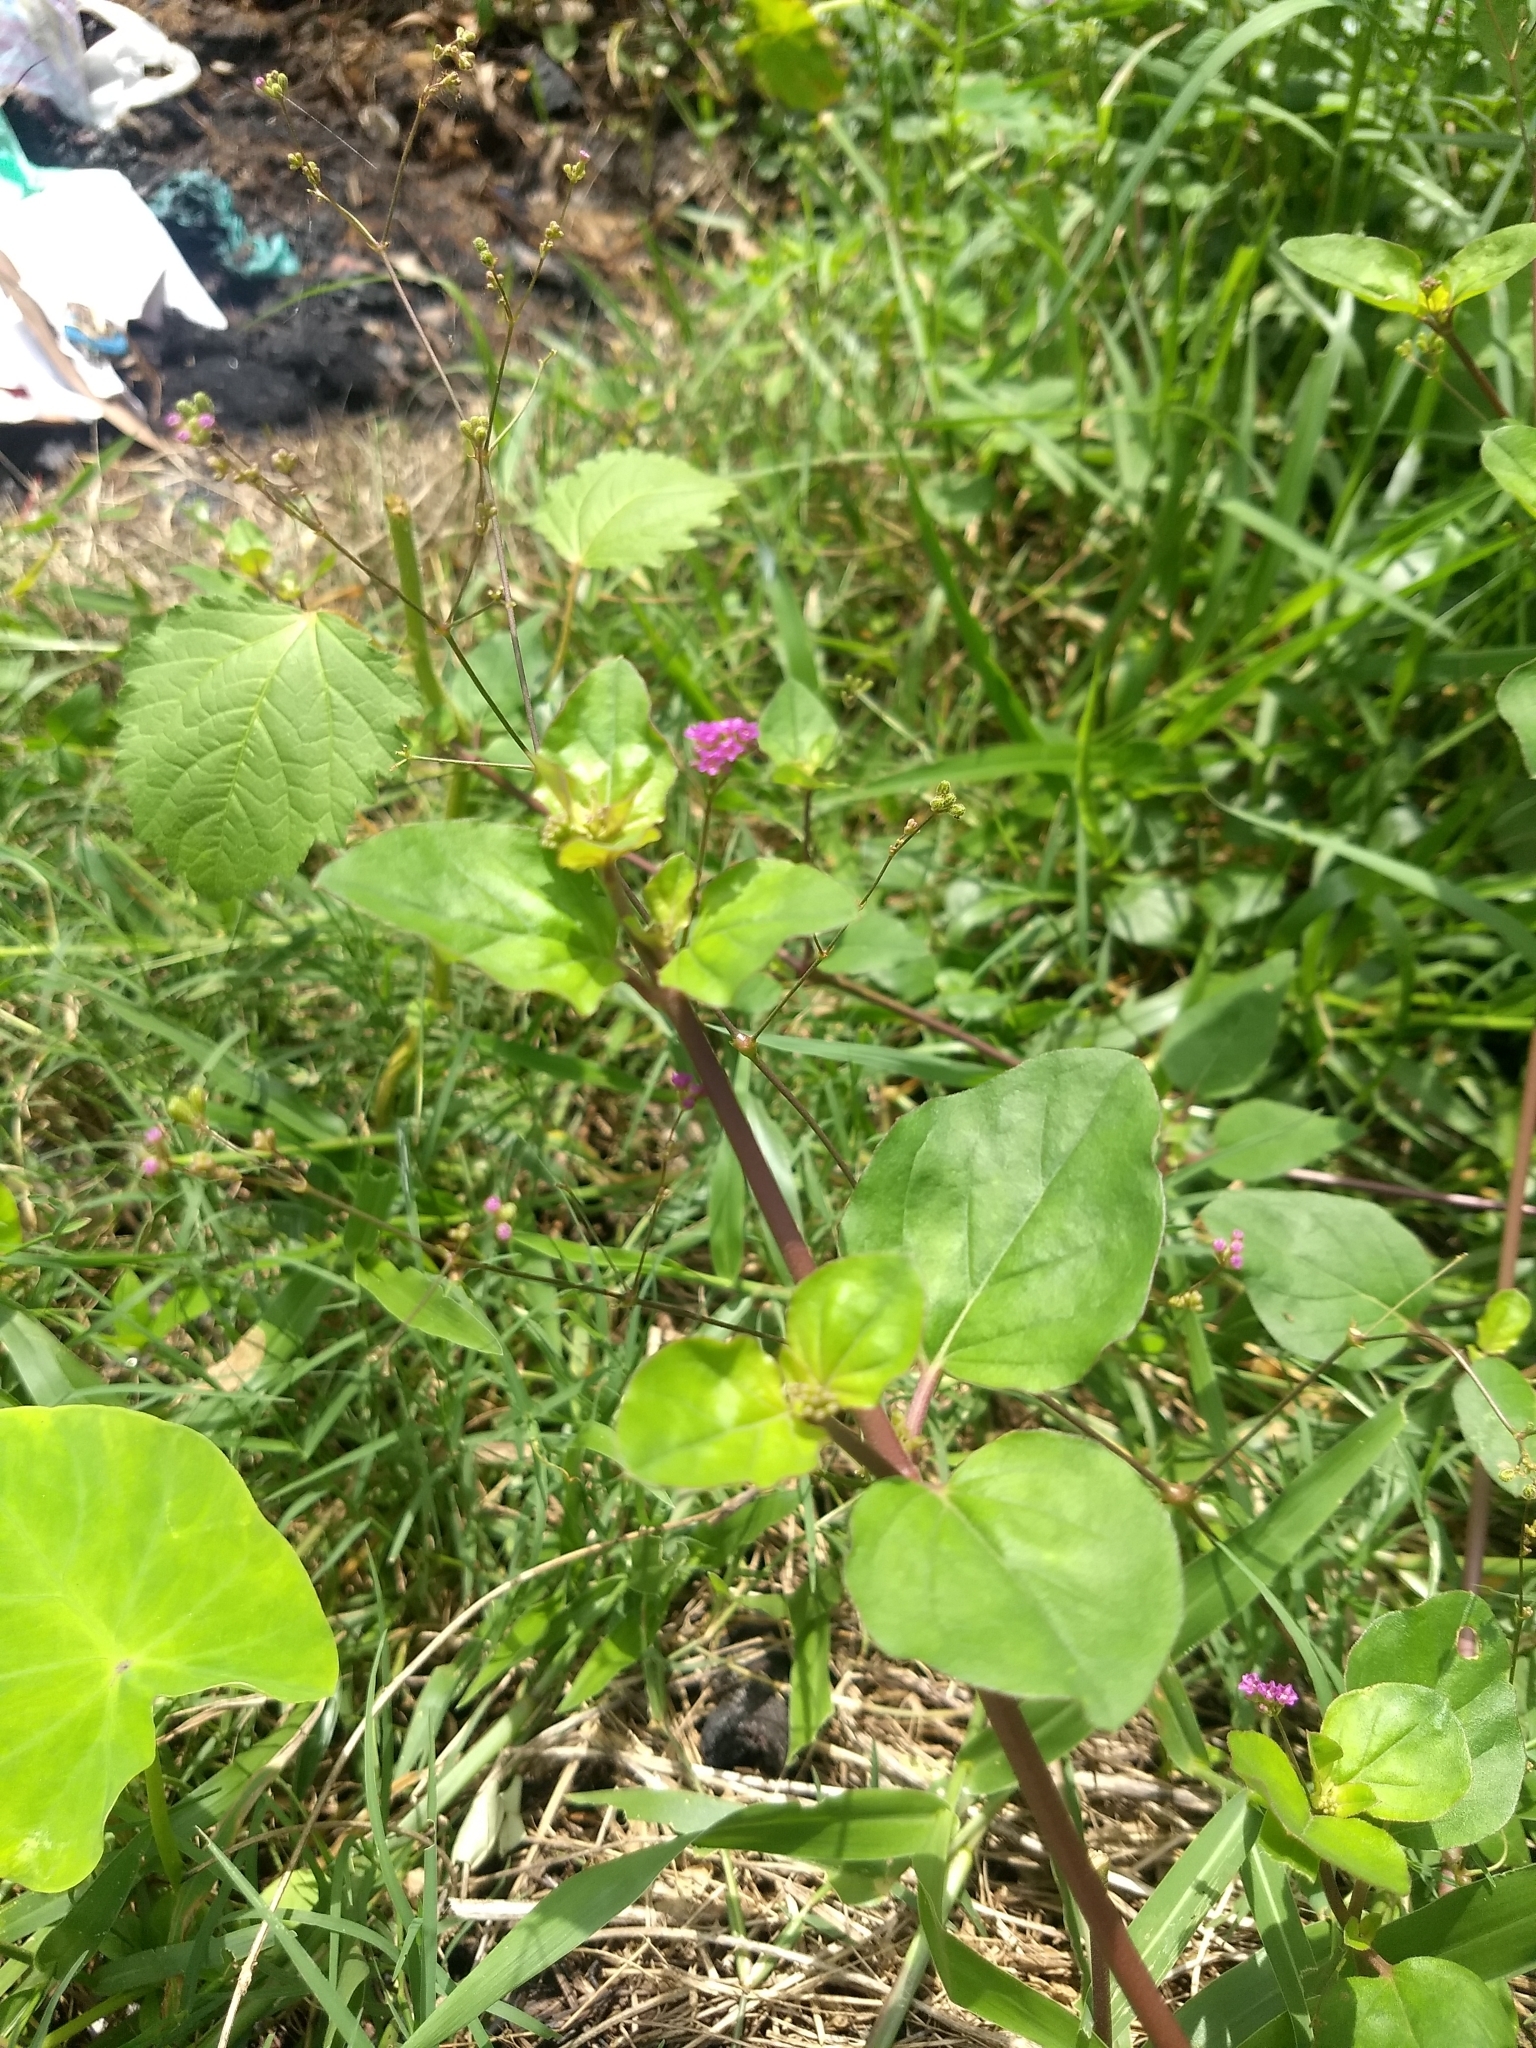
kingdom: Plantae
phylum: Tracheophyta
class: Magnoliopsida
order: Caryophyllales
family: Nyctaginaceae
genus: Boerhavia
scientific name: Boerhavia diffusa
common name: Red spiderling
